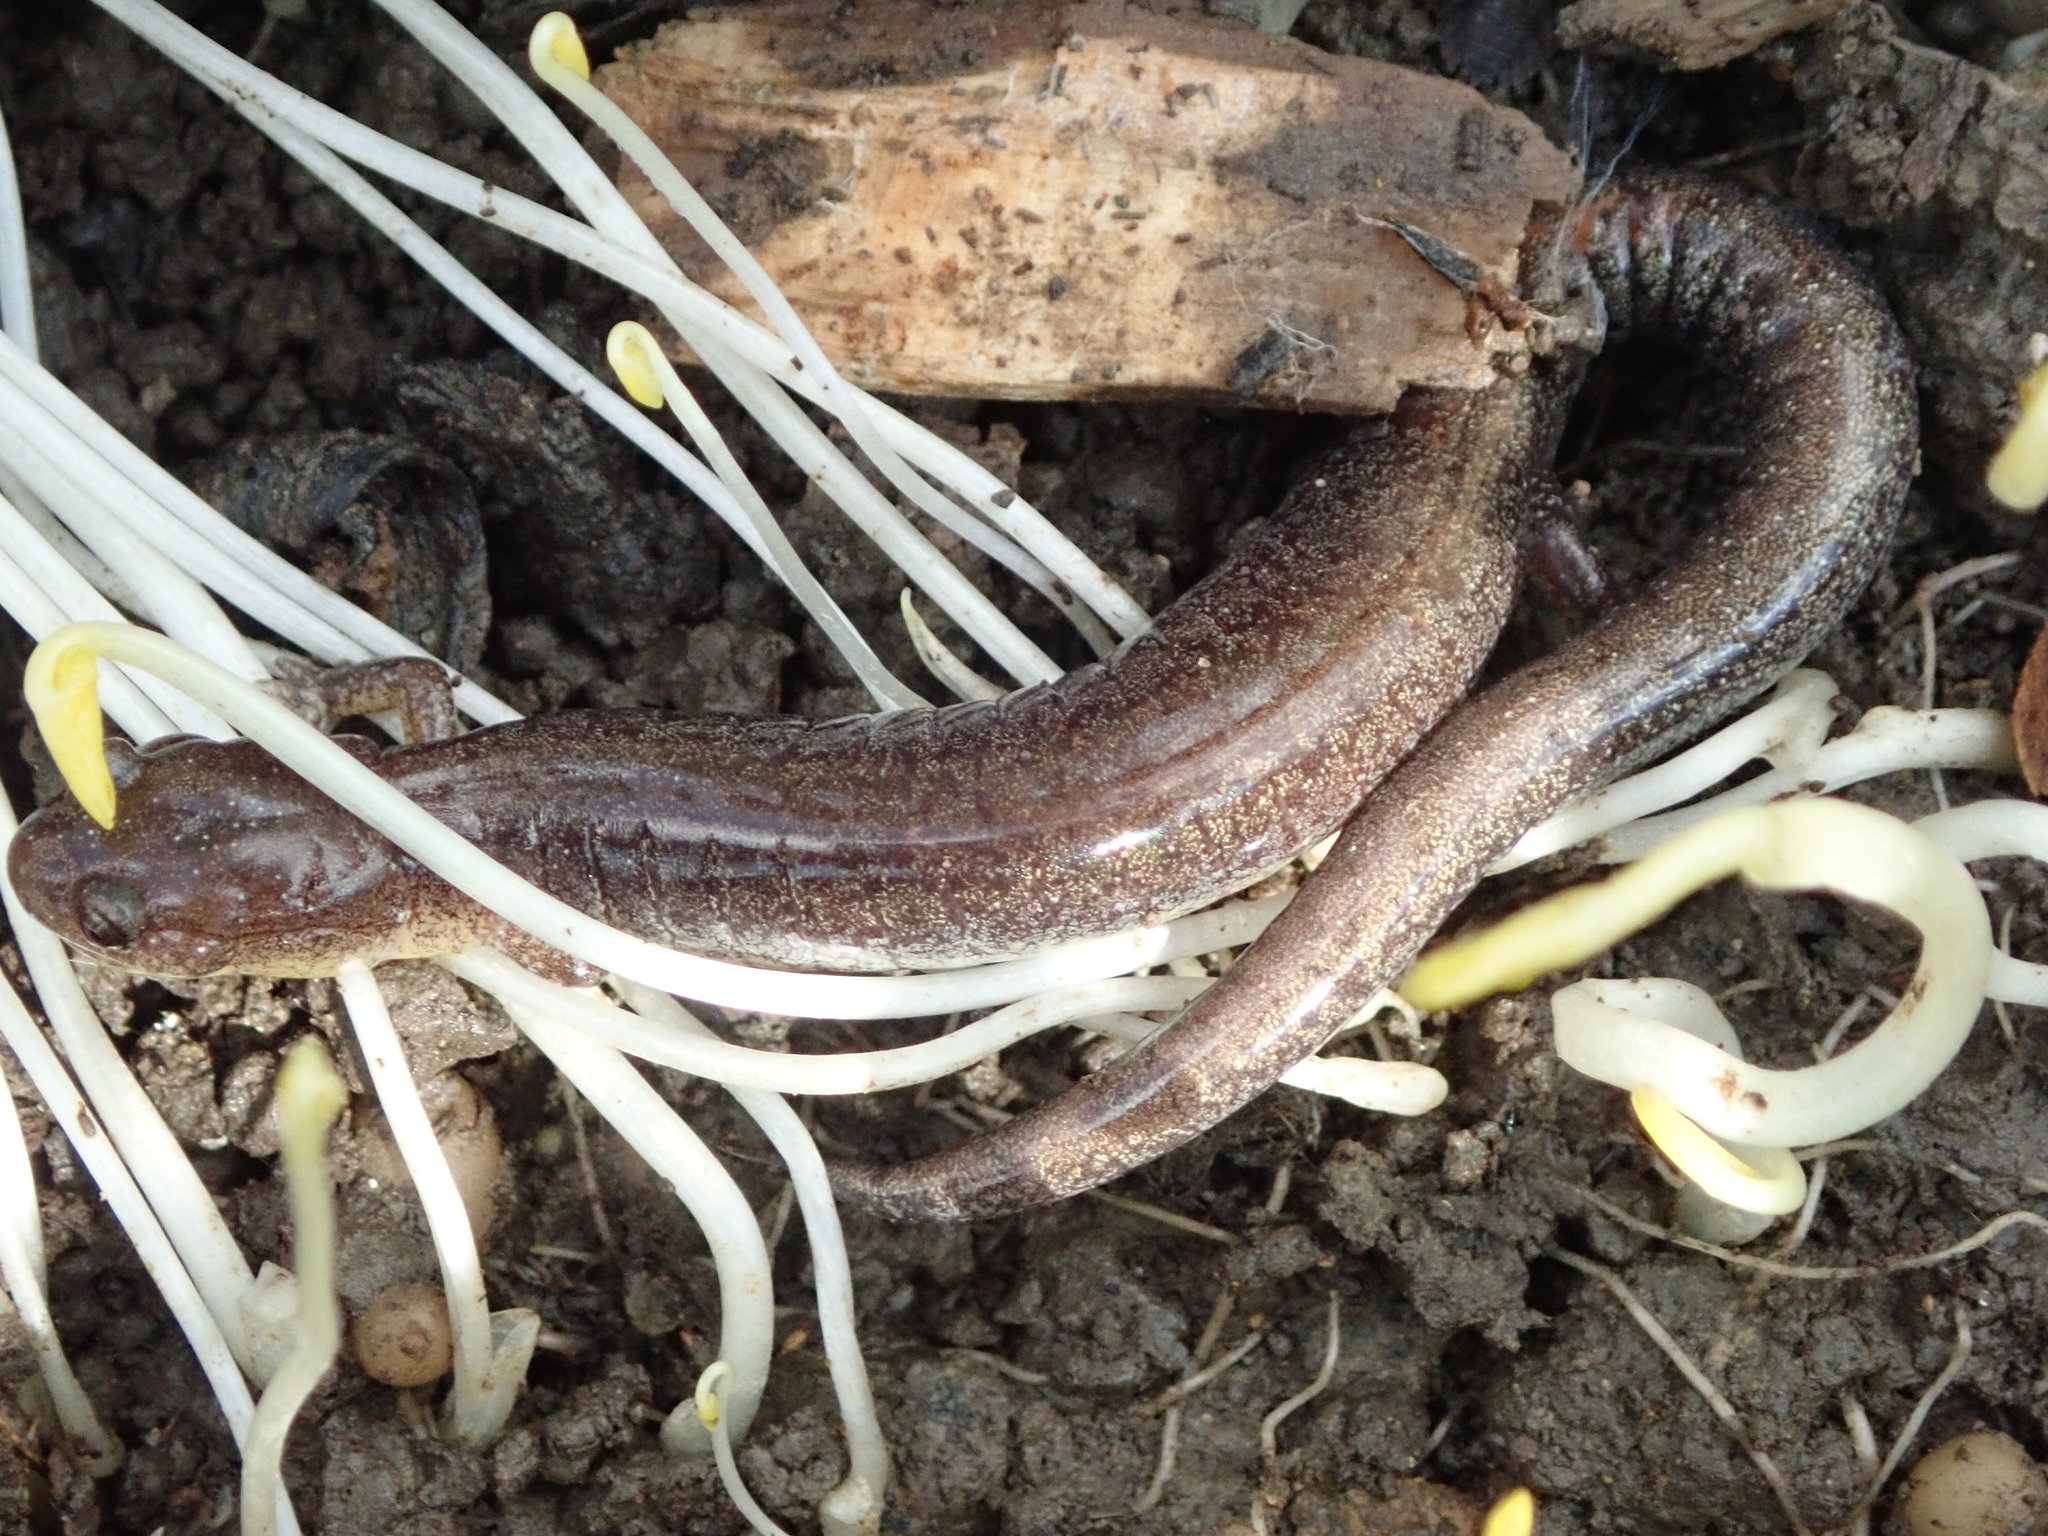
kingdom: Animalia
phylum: Chordata
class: Amphibia
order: Caudata
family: Plethodontidae
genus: Plethodon
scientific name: Plethodon cinereus
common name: Redback salamander
